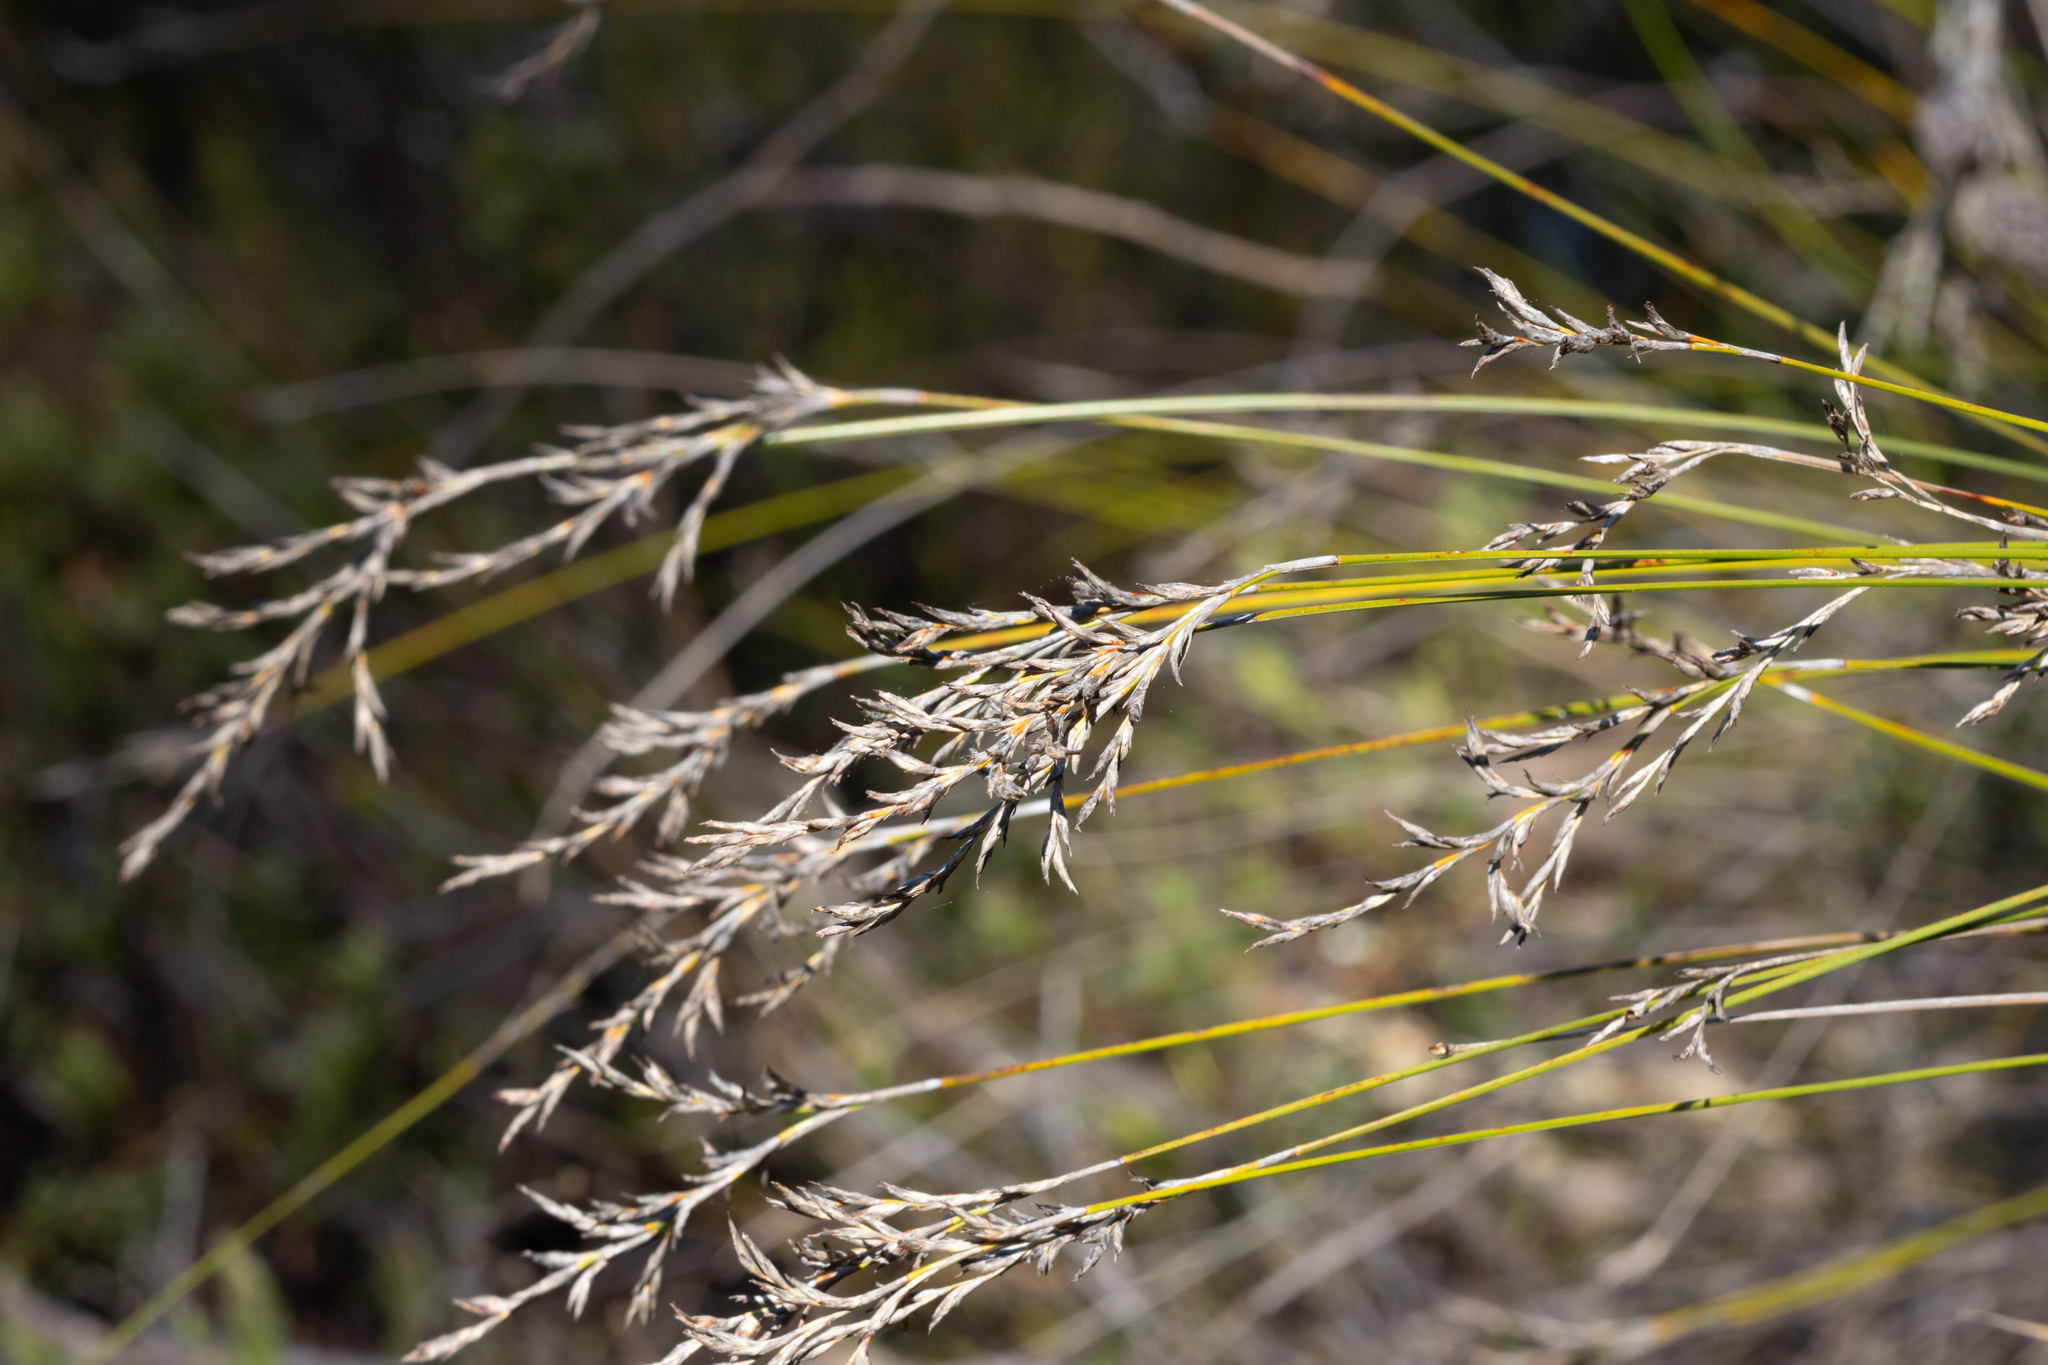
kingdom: Plantae
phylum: Tracheophyta
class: Liliopsida
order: Poales
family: Cyperaceae
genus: Lepidosperma
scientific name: Lepidosperma semiteres
